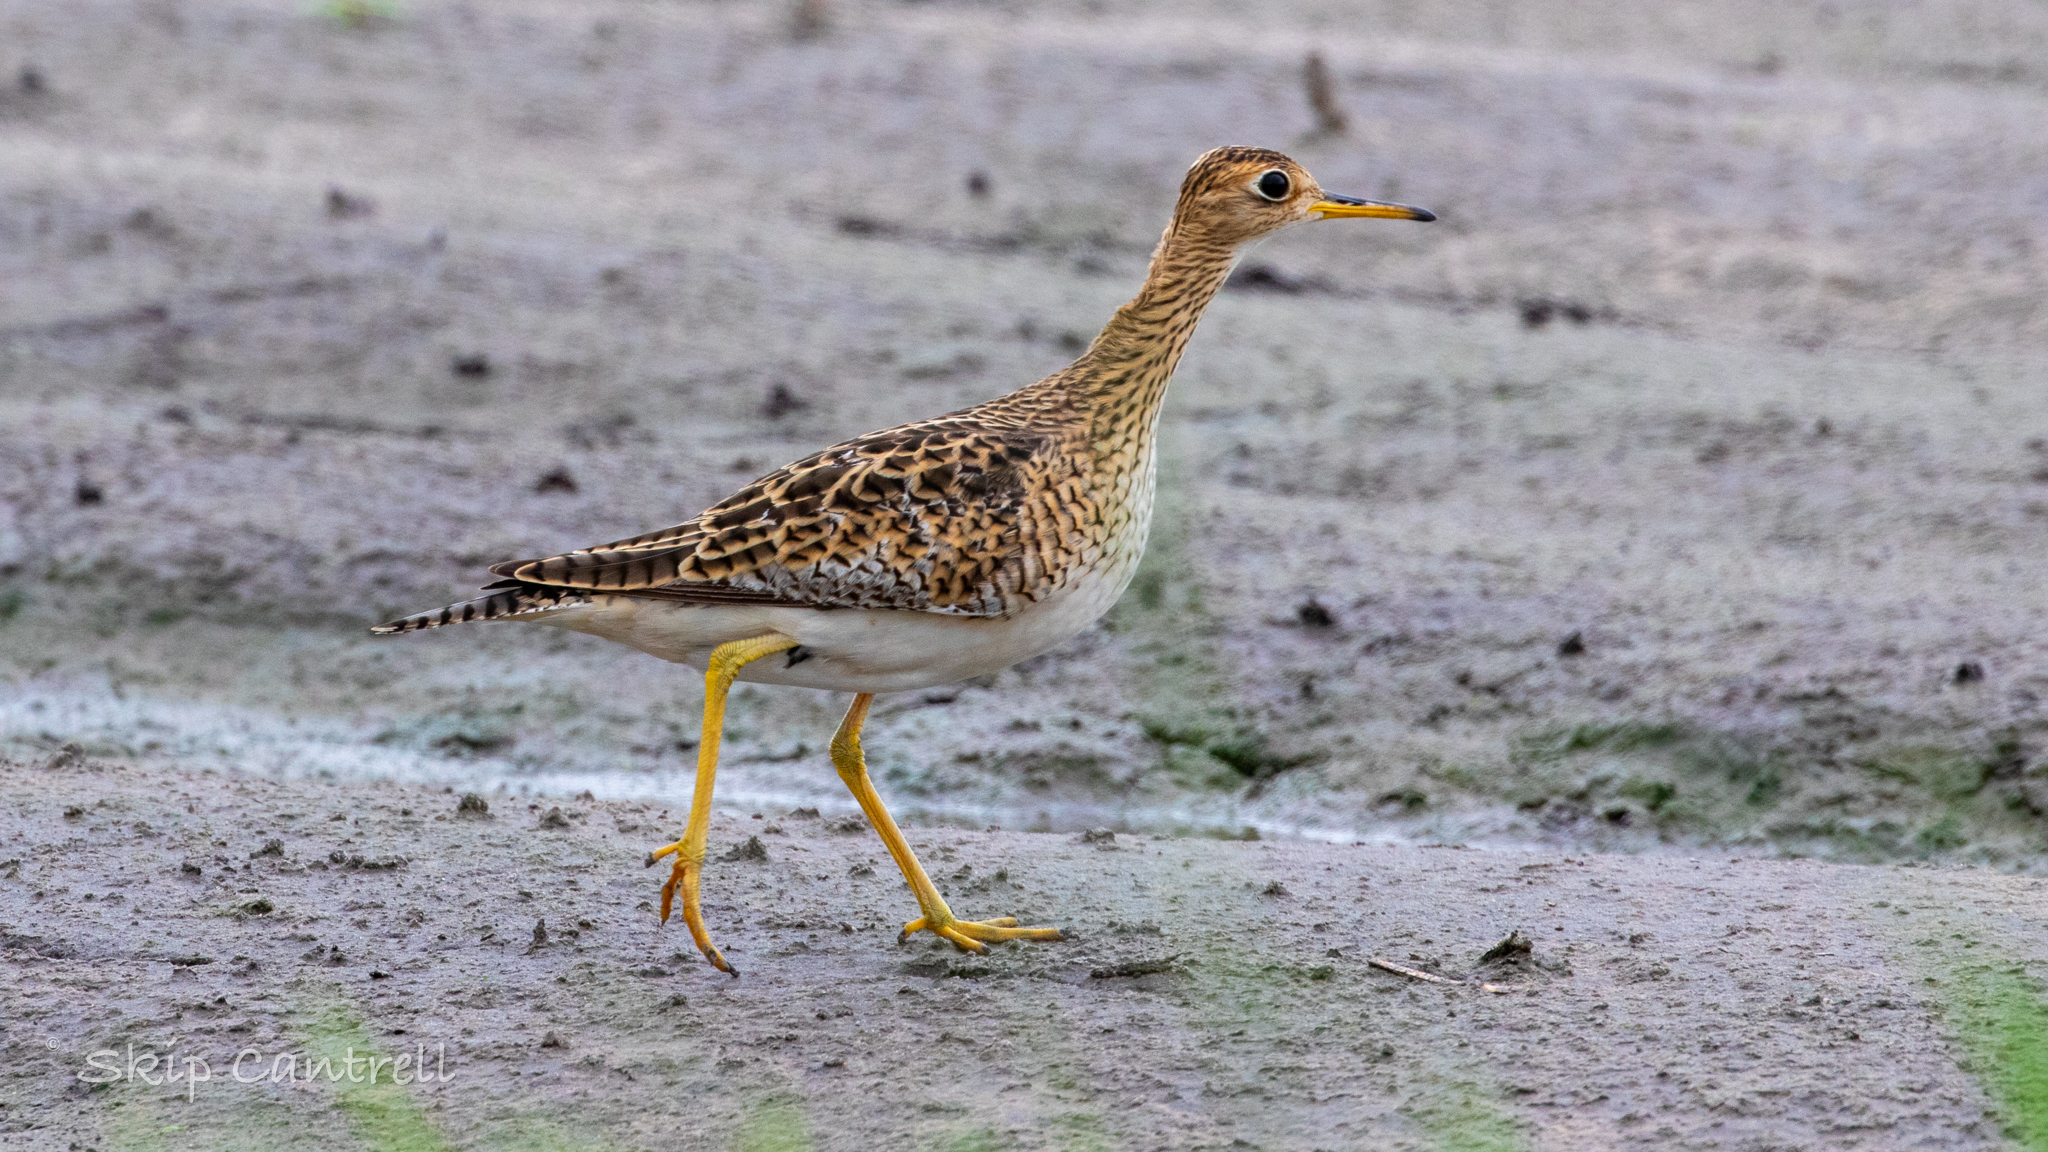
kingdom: Animalia
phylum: Chordata
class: Aves
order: Charadriiformes
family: Scolopacidae
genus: Bartramia
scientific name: Bartramia longicauda
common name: Upland sandpiper
